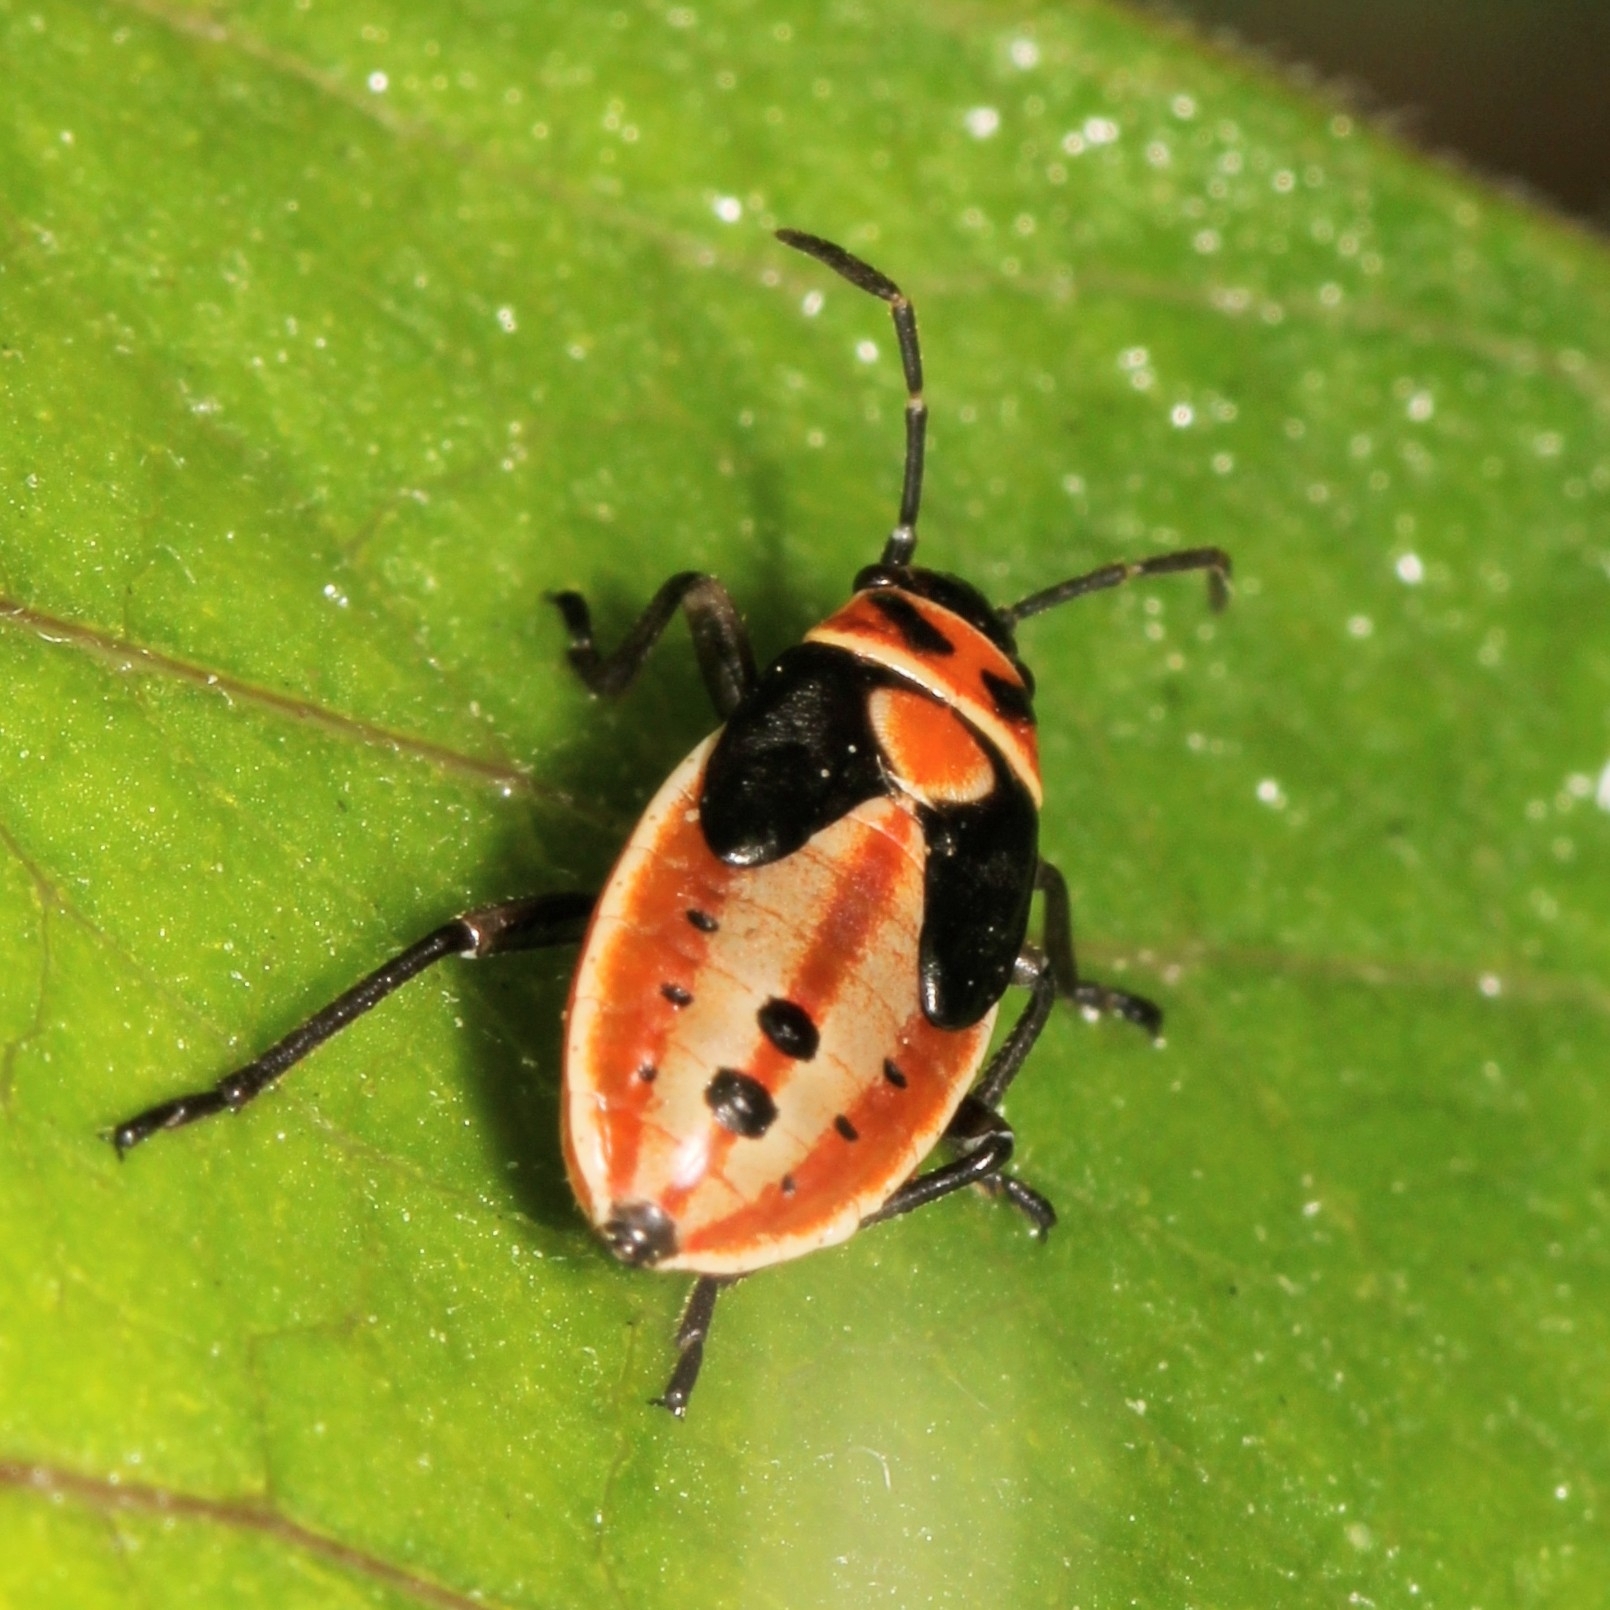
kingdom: Animalia
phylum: Arthropoda
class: Insecta
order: Hemiptera
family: Lygaeidae
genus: Lygaeus
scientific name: Lygaeus kalmii
